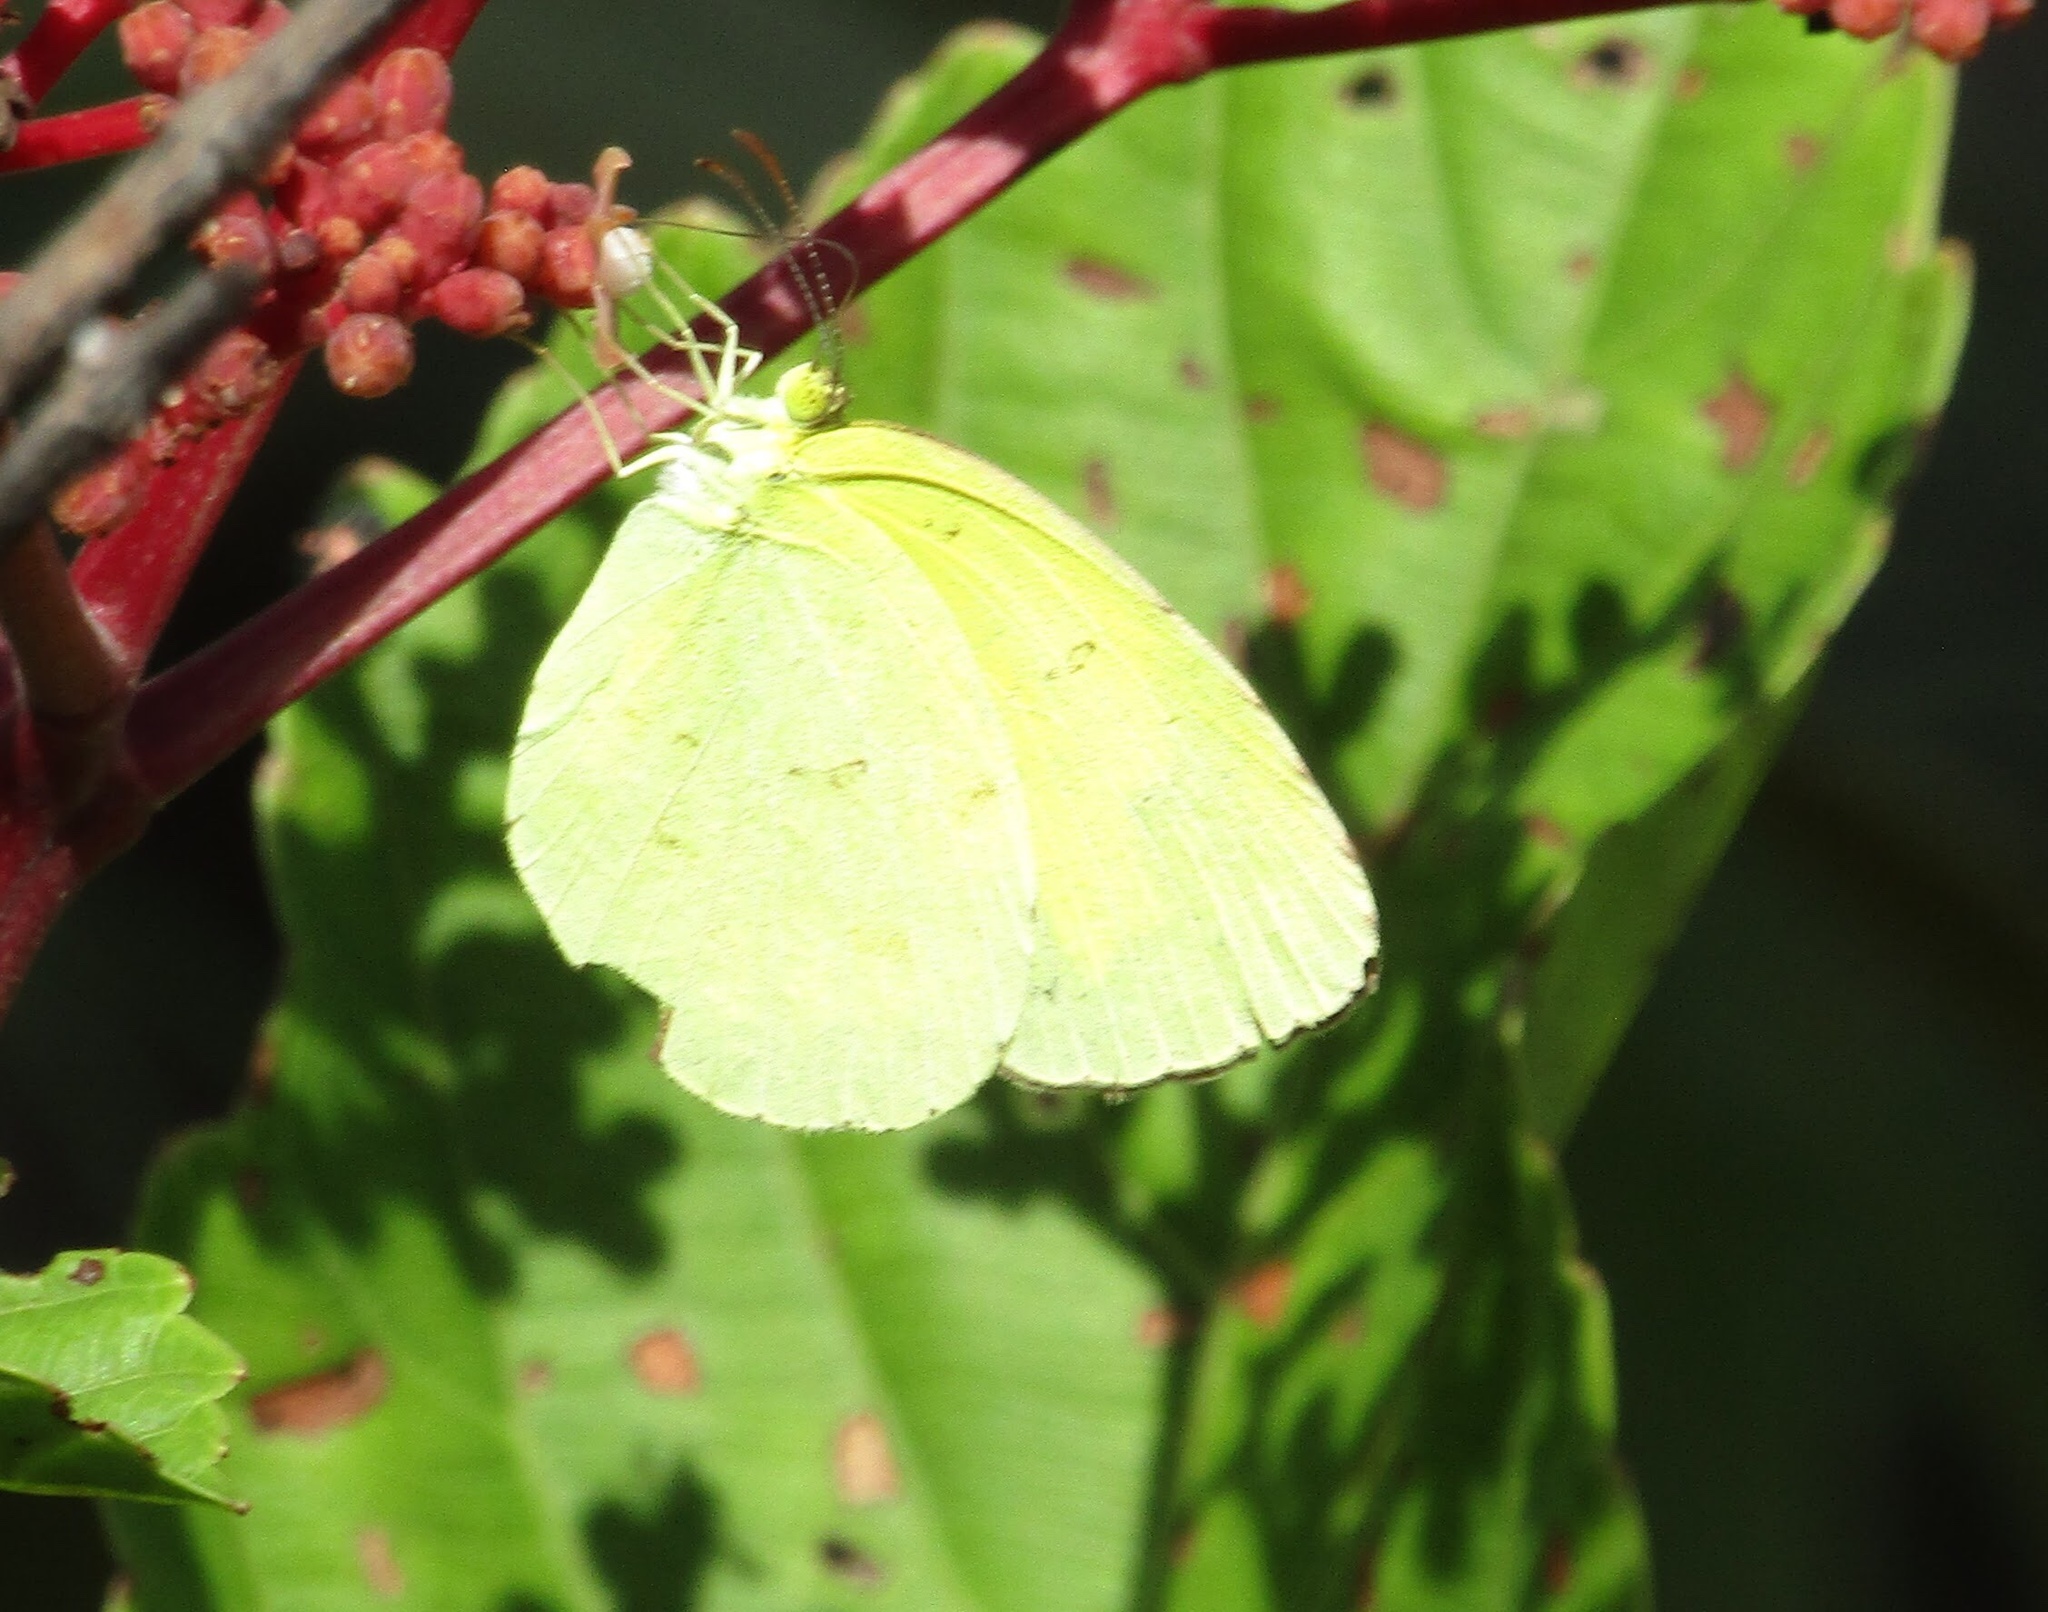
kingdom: Animalia
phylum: Arthropoda
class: Insecta
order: Lepidoptera
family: Pieridae
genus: Eurema
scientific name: Eurema hecabe
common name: Pale grass yellow
